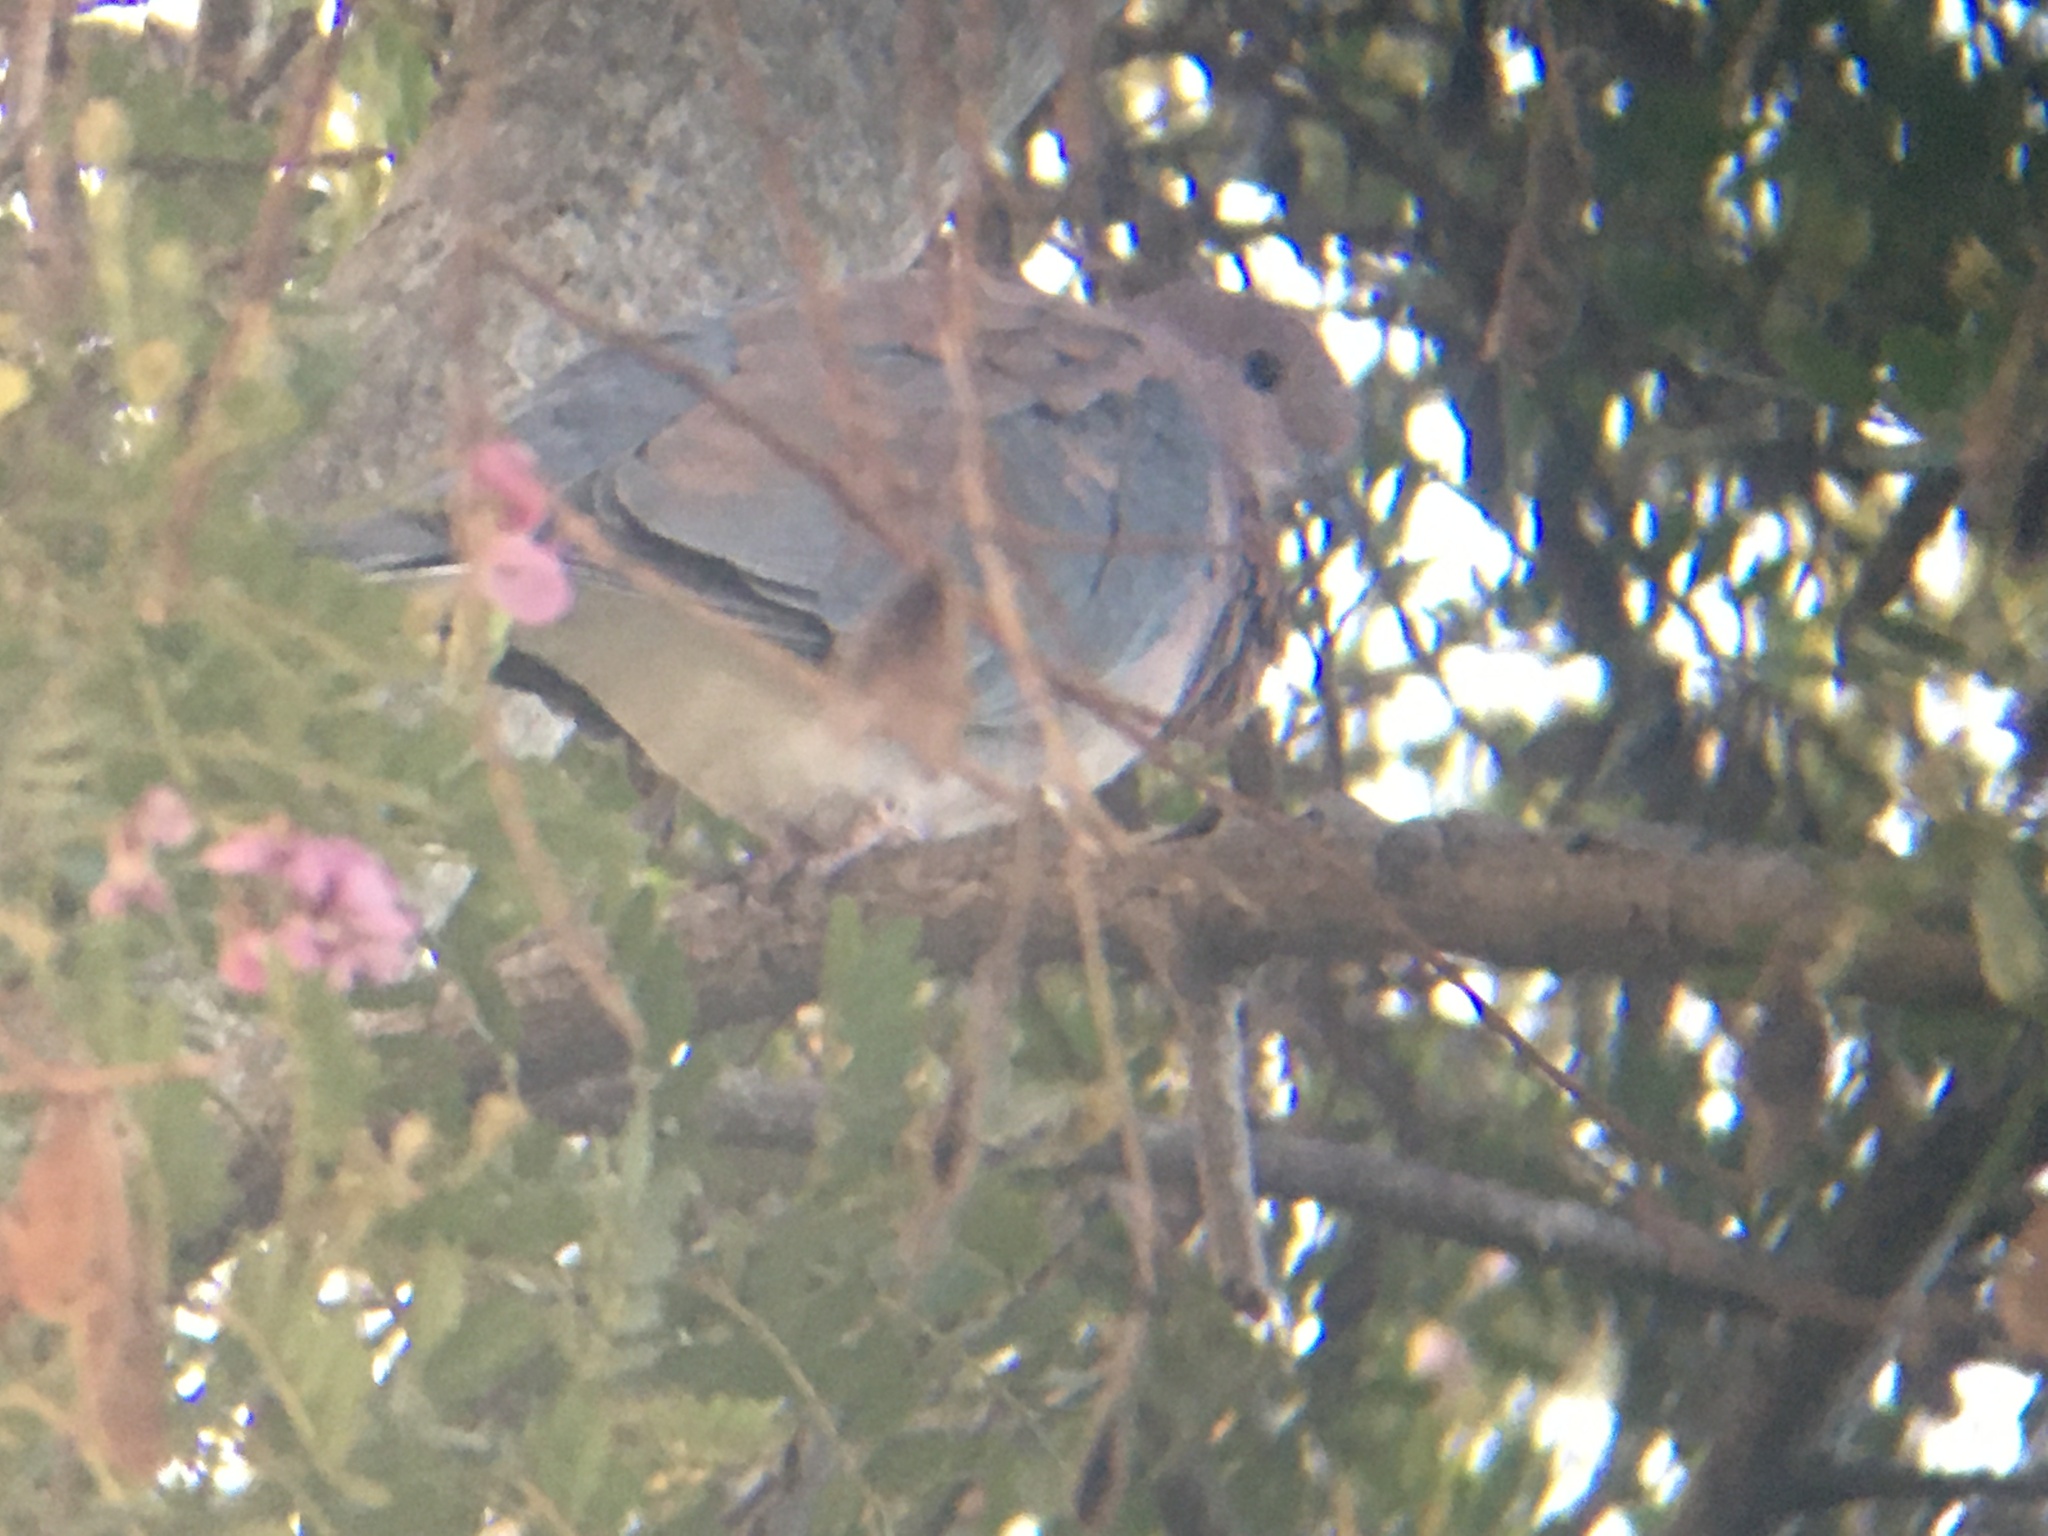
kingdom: Animalia
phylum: Chordata
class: Aves
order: Columbiformes
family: Columbidae
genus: Spilopelia
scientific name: Spilopelia senegalensis
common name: Laughing dove
